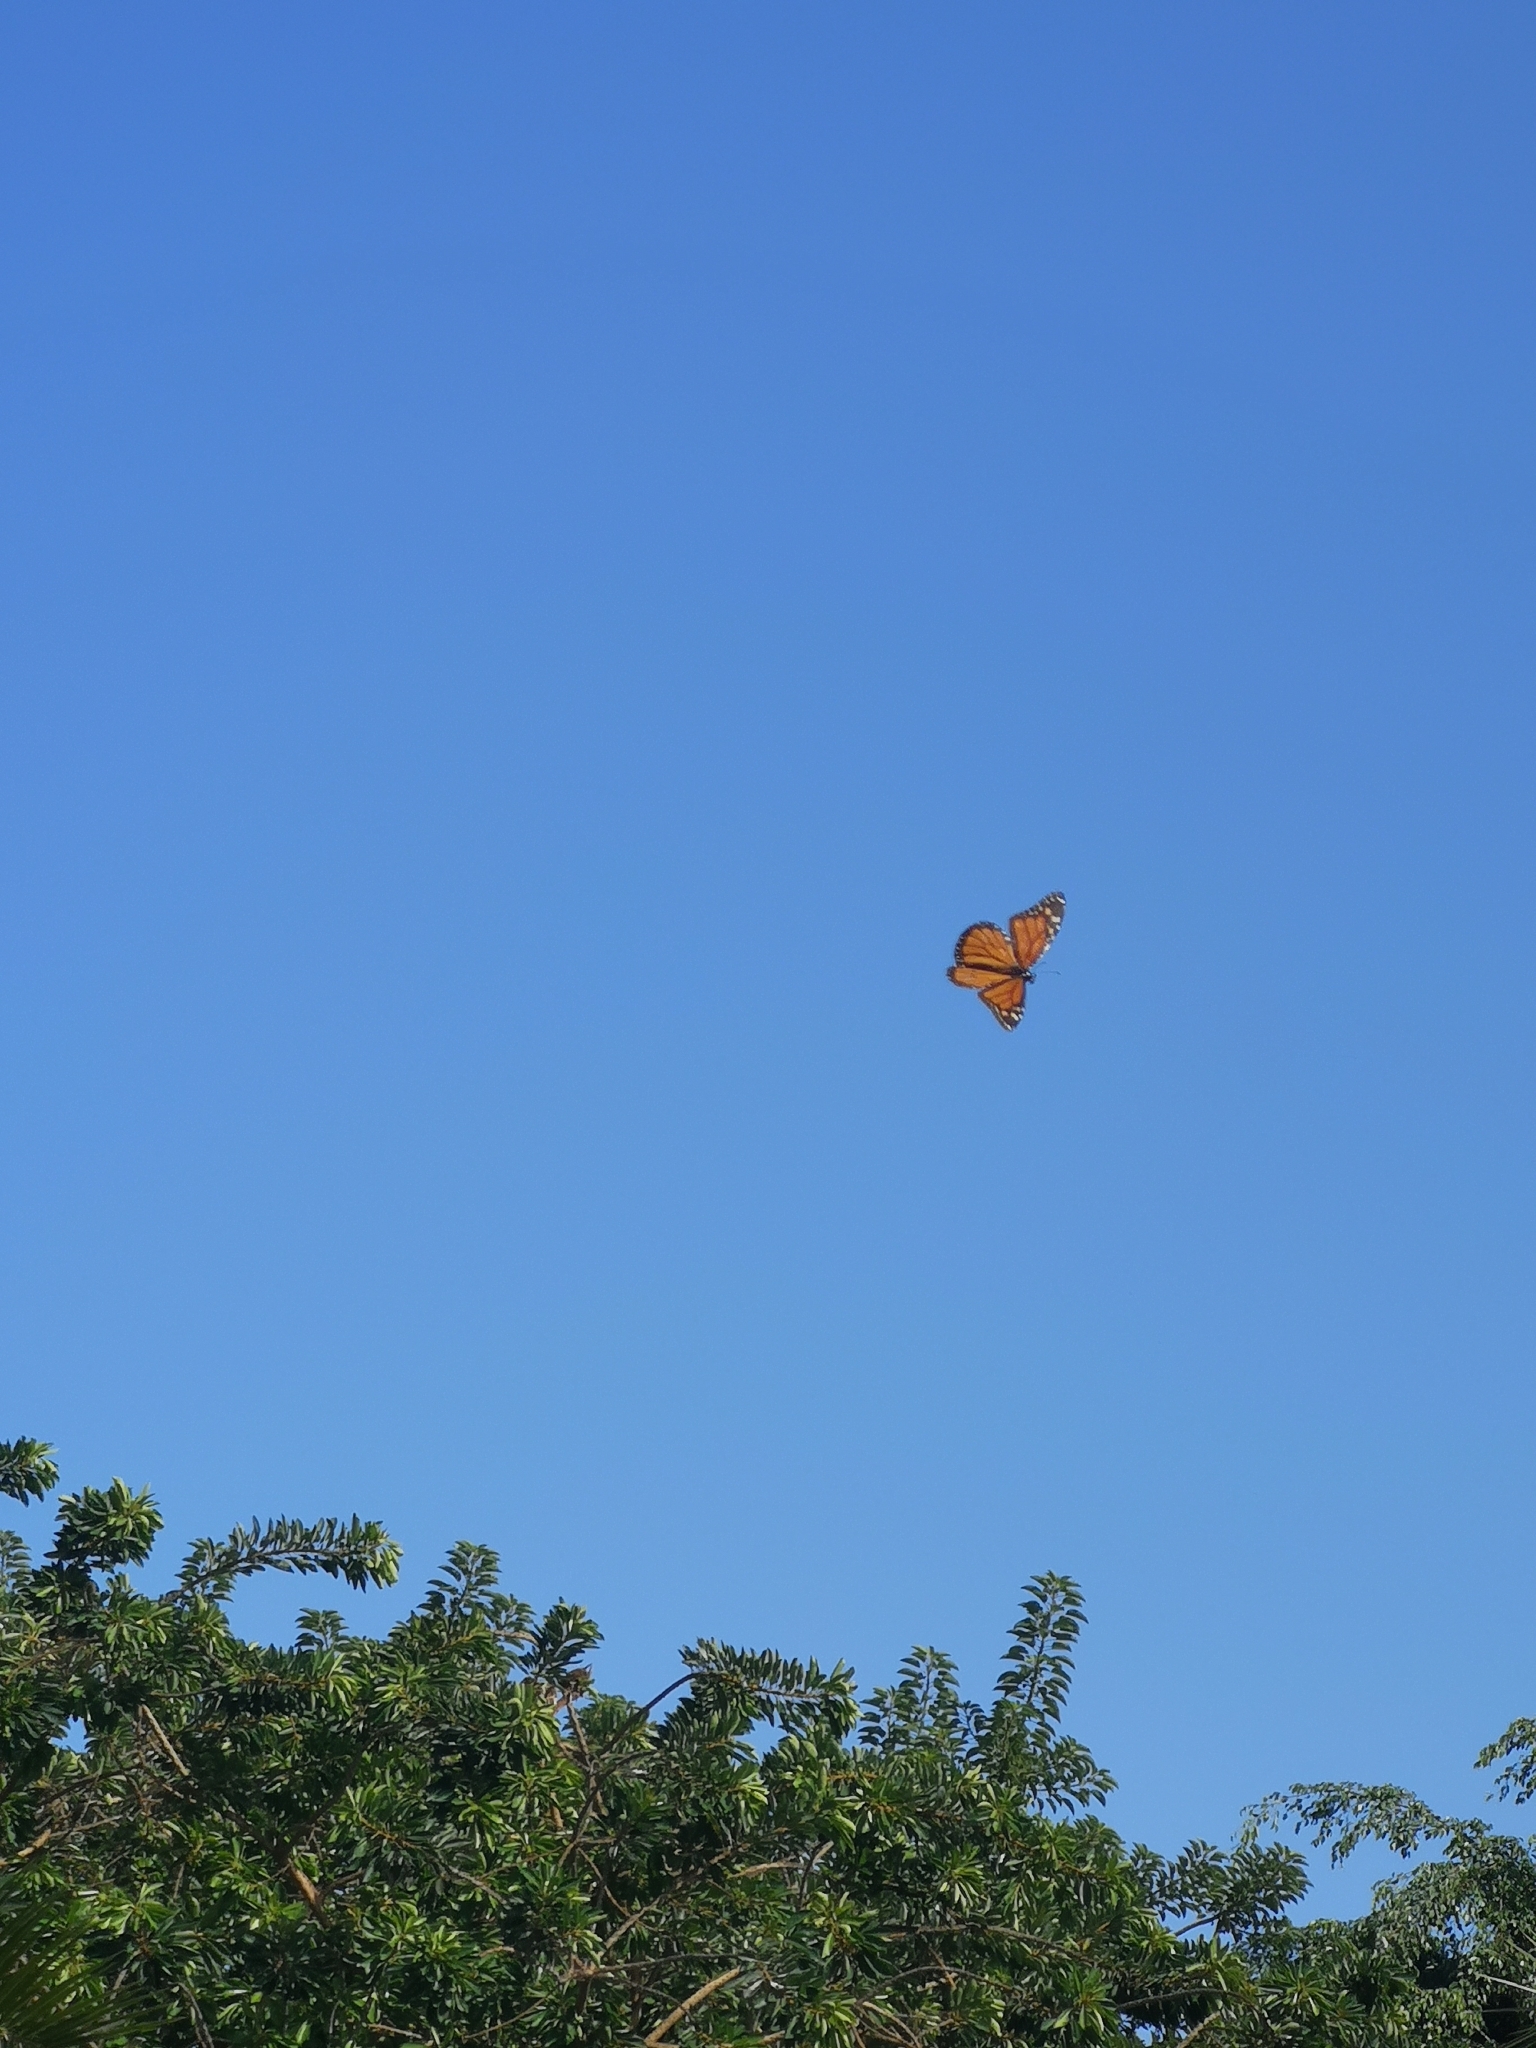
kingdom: Animalia
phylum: Arthropoda
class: Insecta
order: Lepidoptera
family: Nymphalidae
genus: Danaus
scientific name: Danaus plexippus
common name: Monarch
